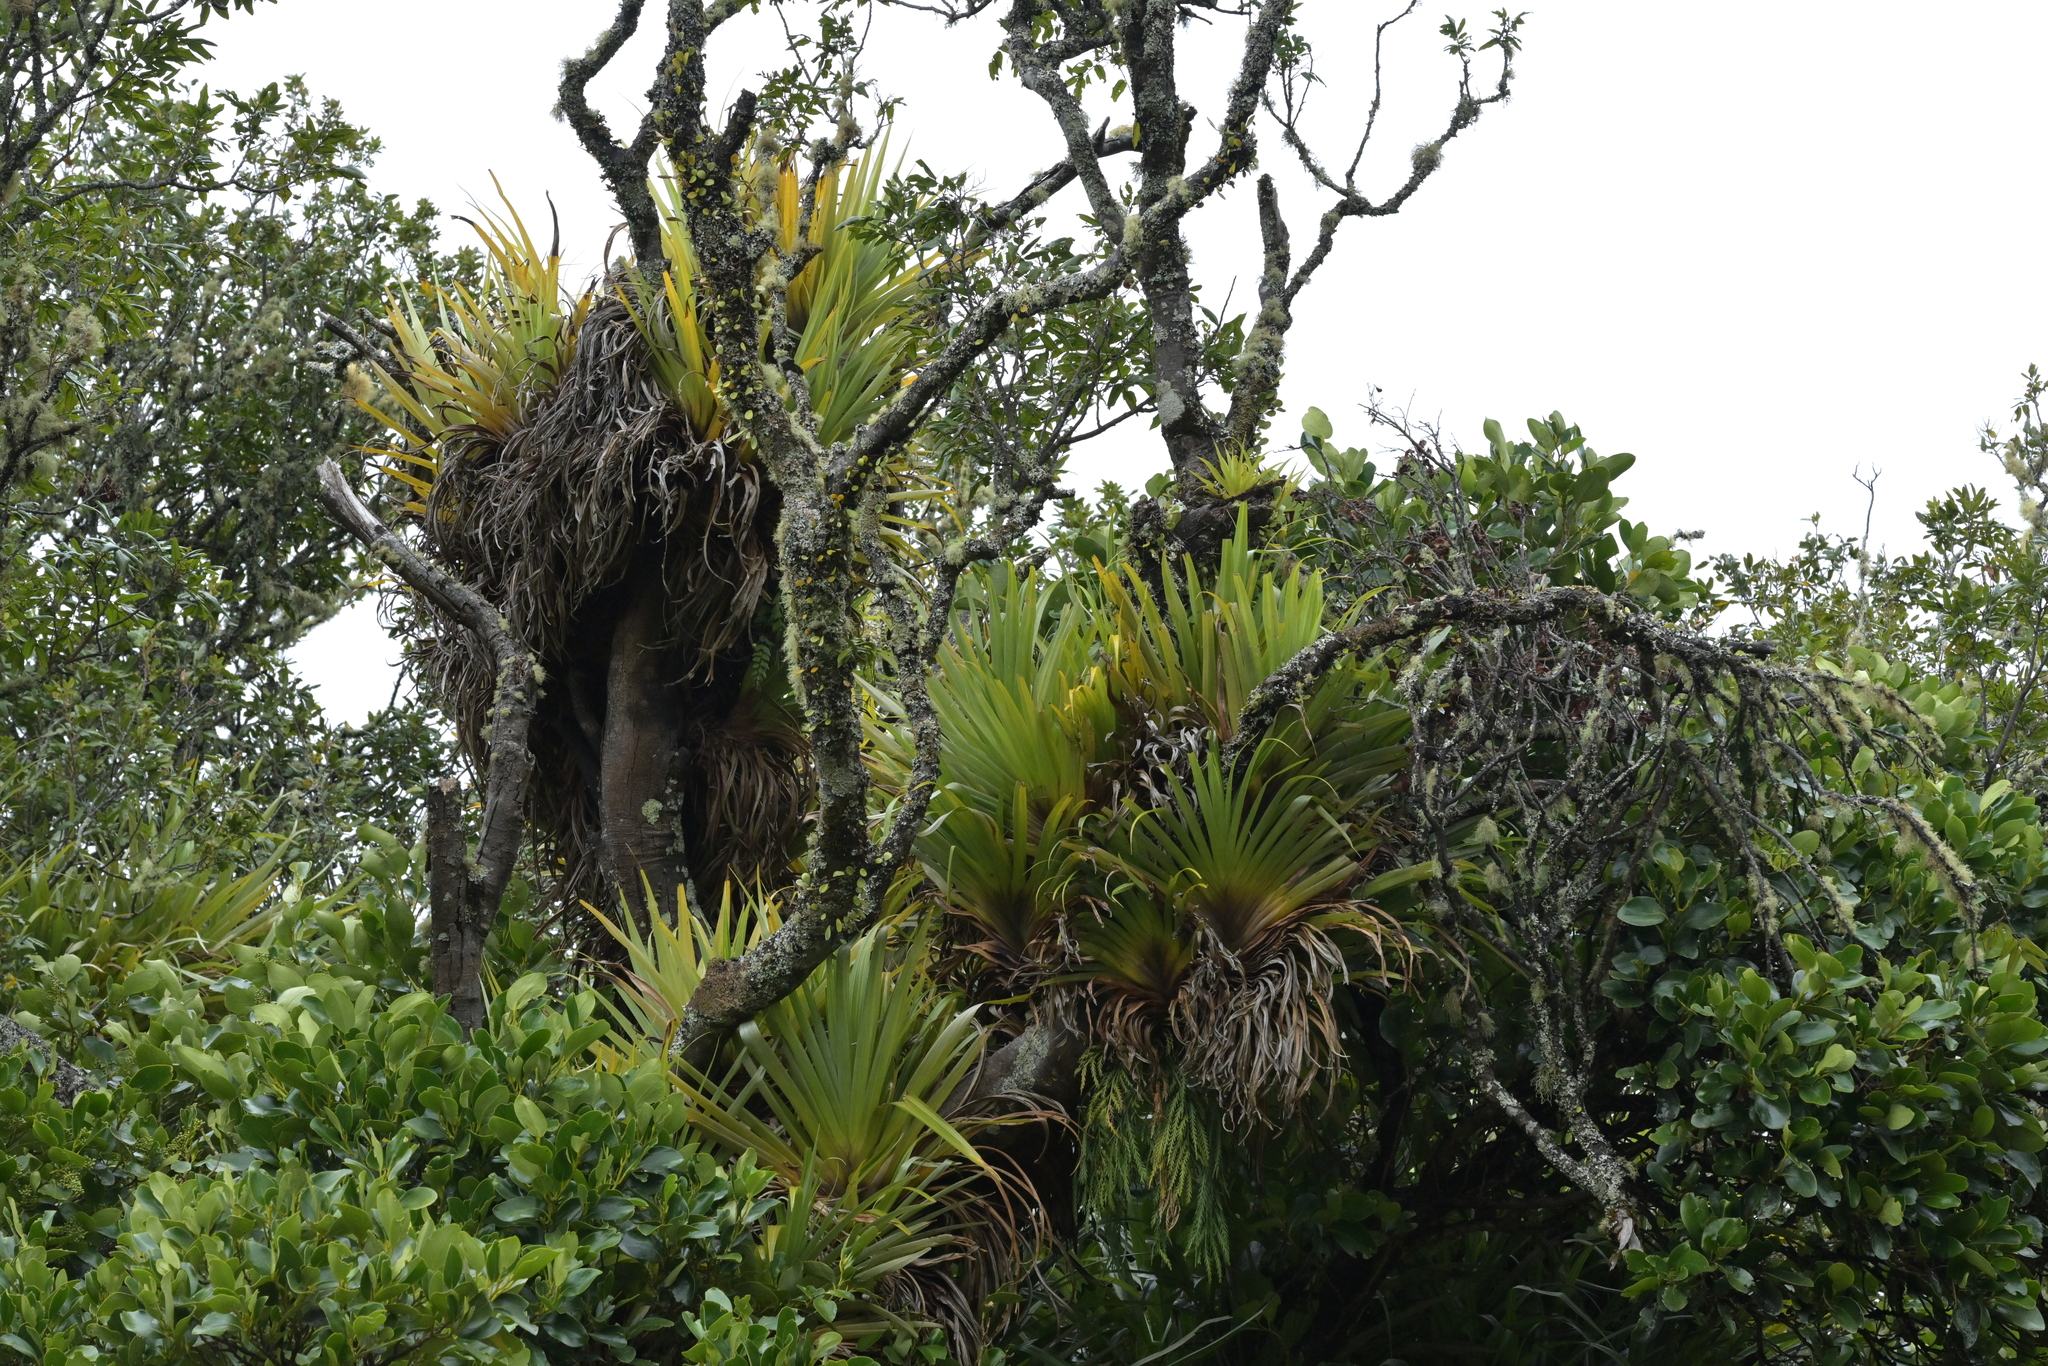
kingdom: Plantae
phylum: Tracheophyta
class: Liliopsida
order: Asparagales
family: Asteliaceae
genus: Astelia
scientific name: Astelia hastata
